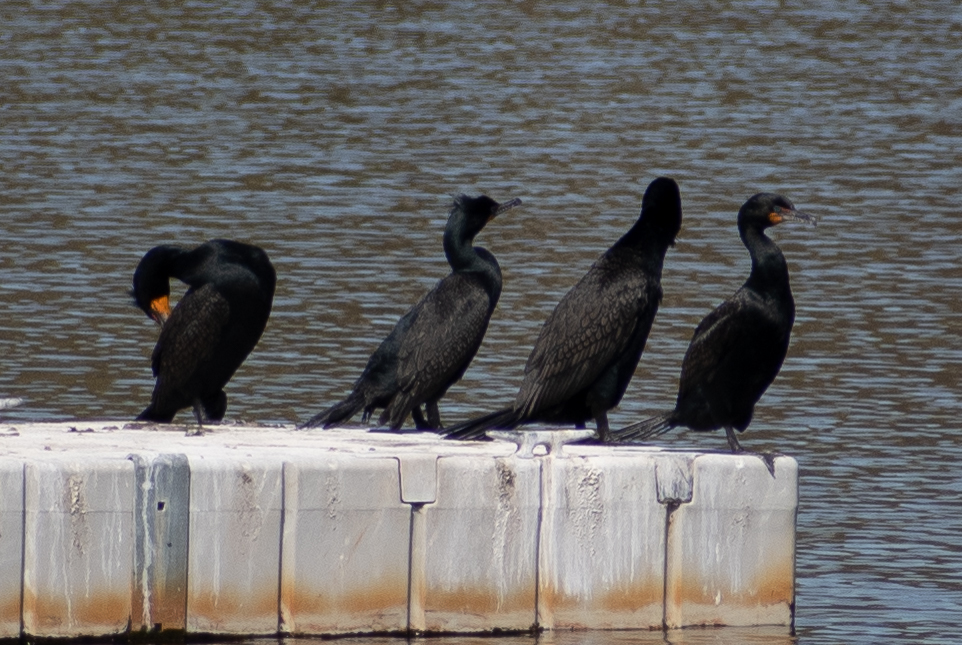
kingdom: Animalia
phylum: Chordata
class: Aves
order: Suliformes
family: Phalacrocoracidae
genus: Phalacrocorax
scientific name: Phalacrocorax auritus
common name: Double-crested cormorant
